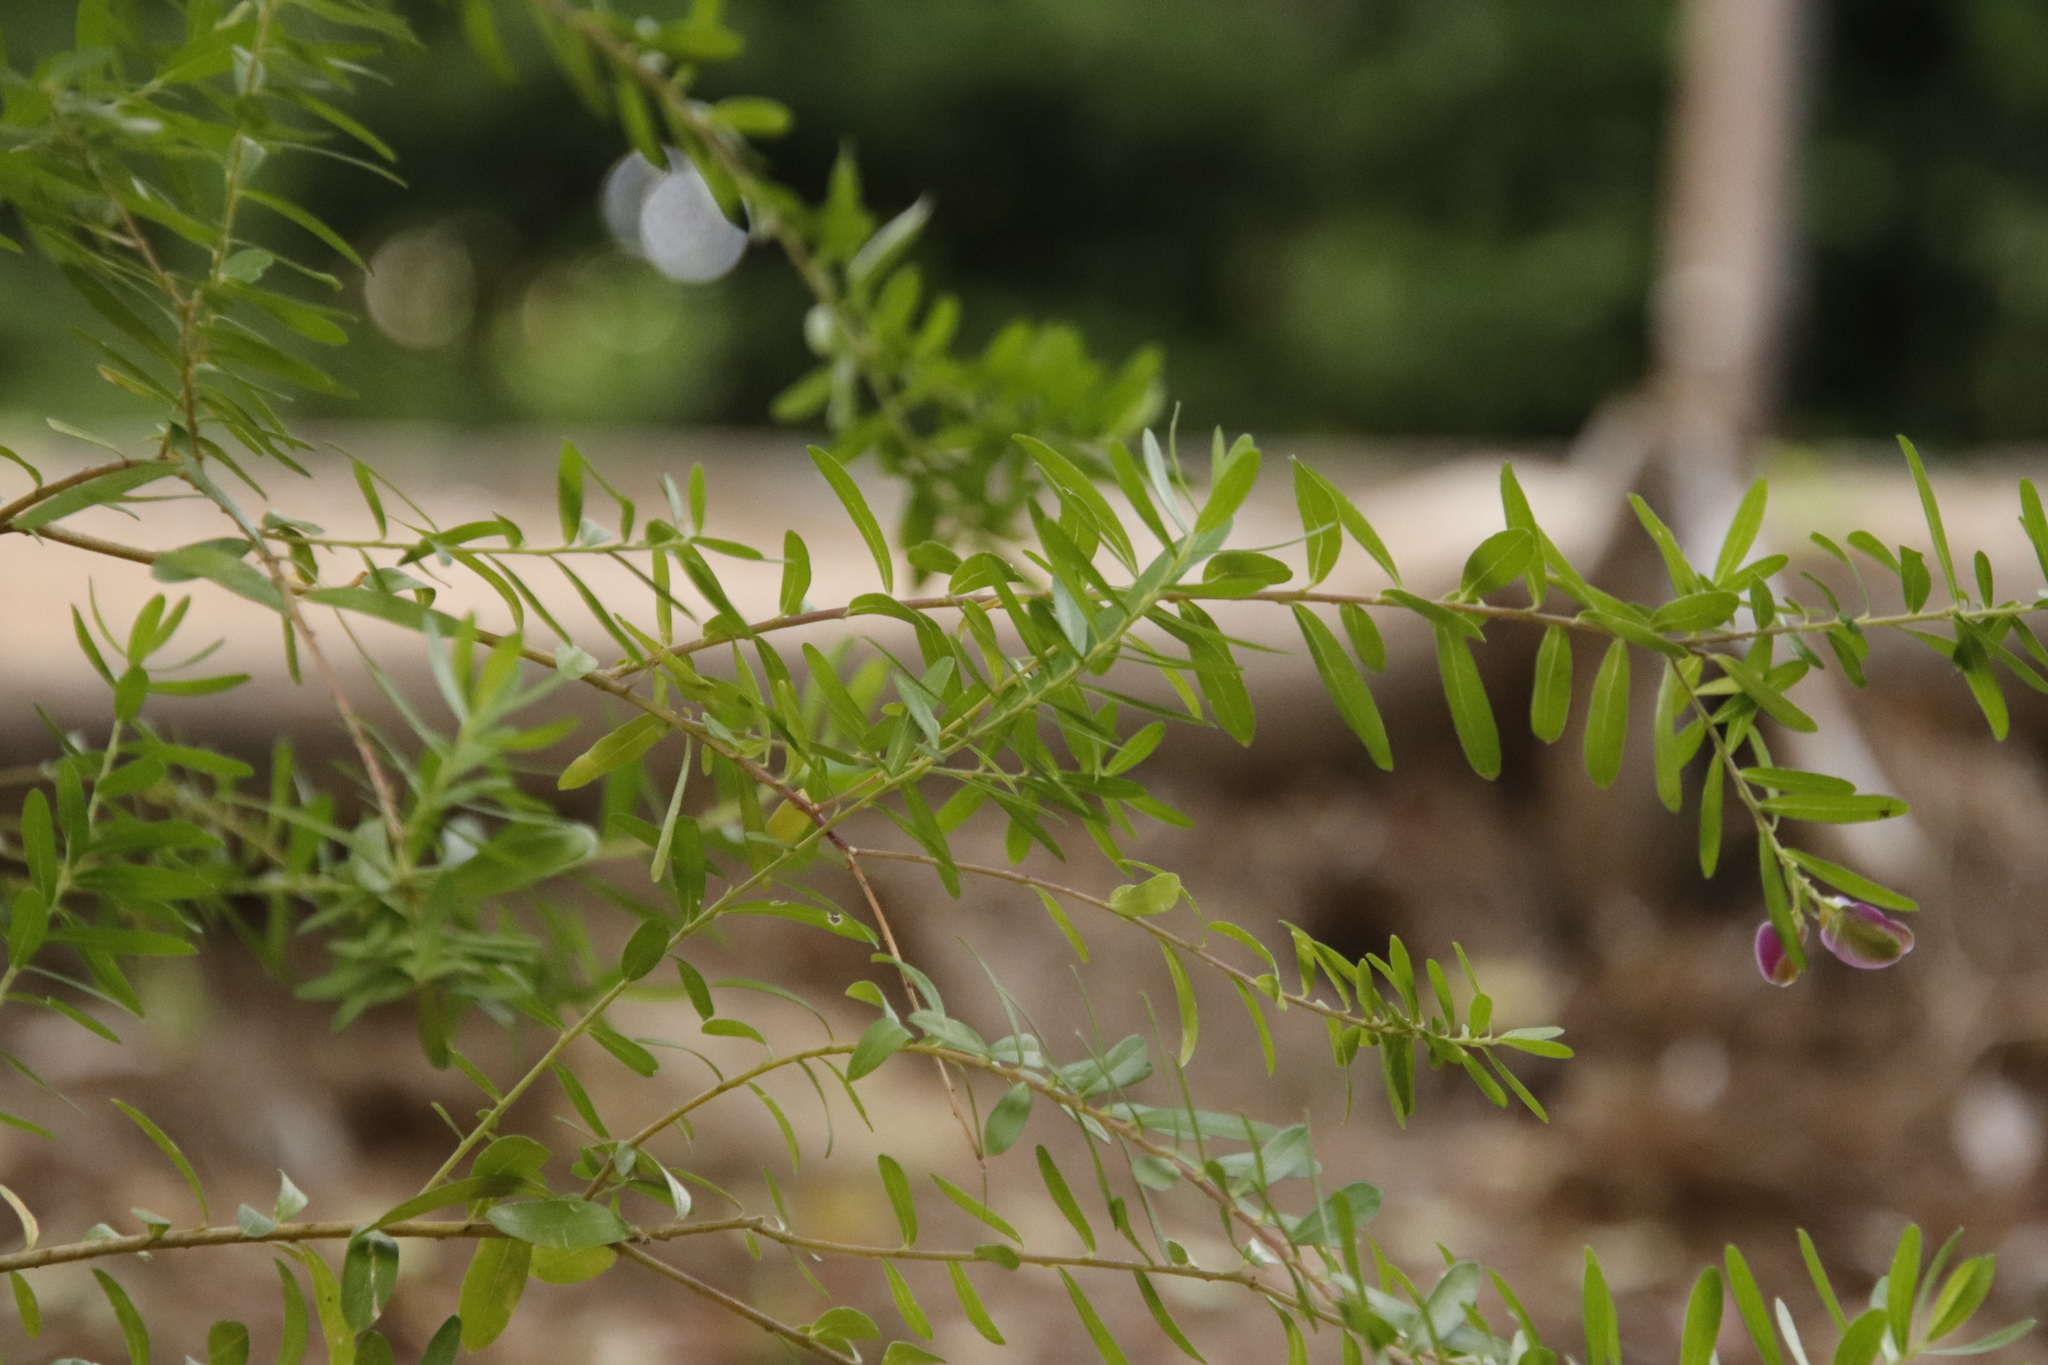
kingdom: Plantae
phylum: Tracheophyta
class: Magnoliopsida
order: Fabales
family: Polygalaceae
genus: Polygala
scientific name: Polygala myrtifolia
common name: Myrtle-leaf milkwort
